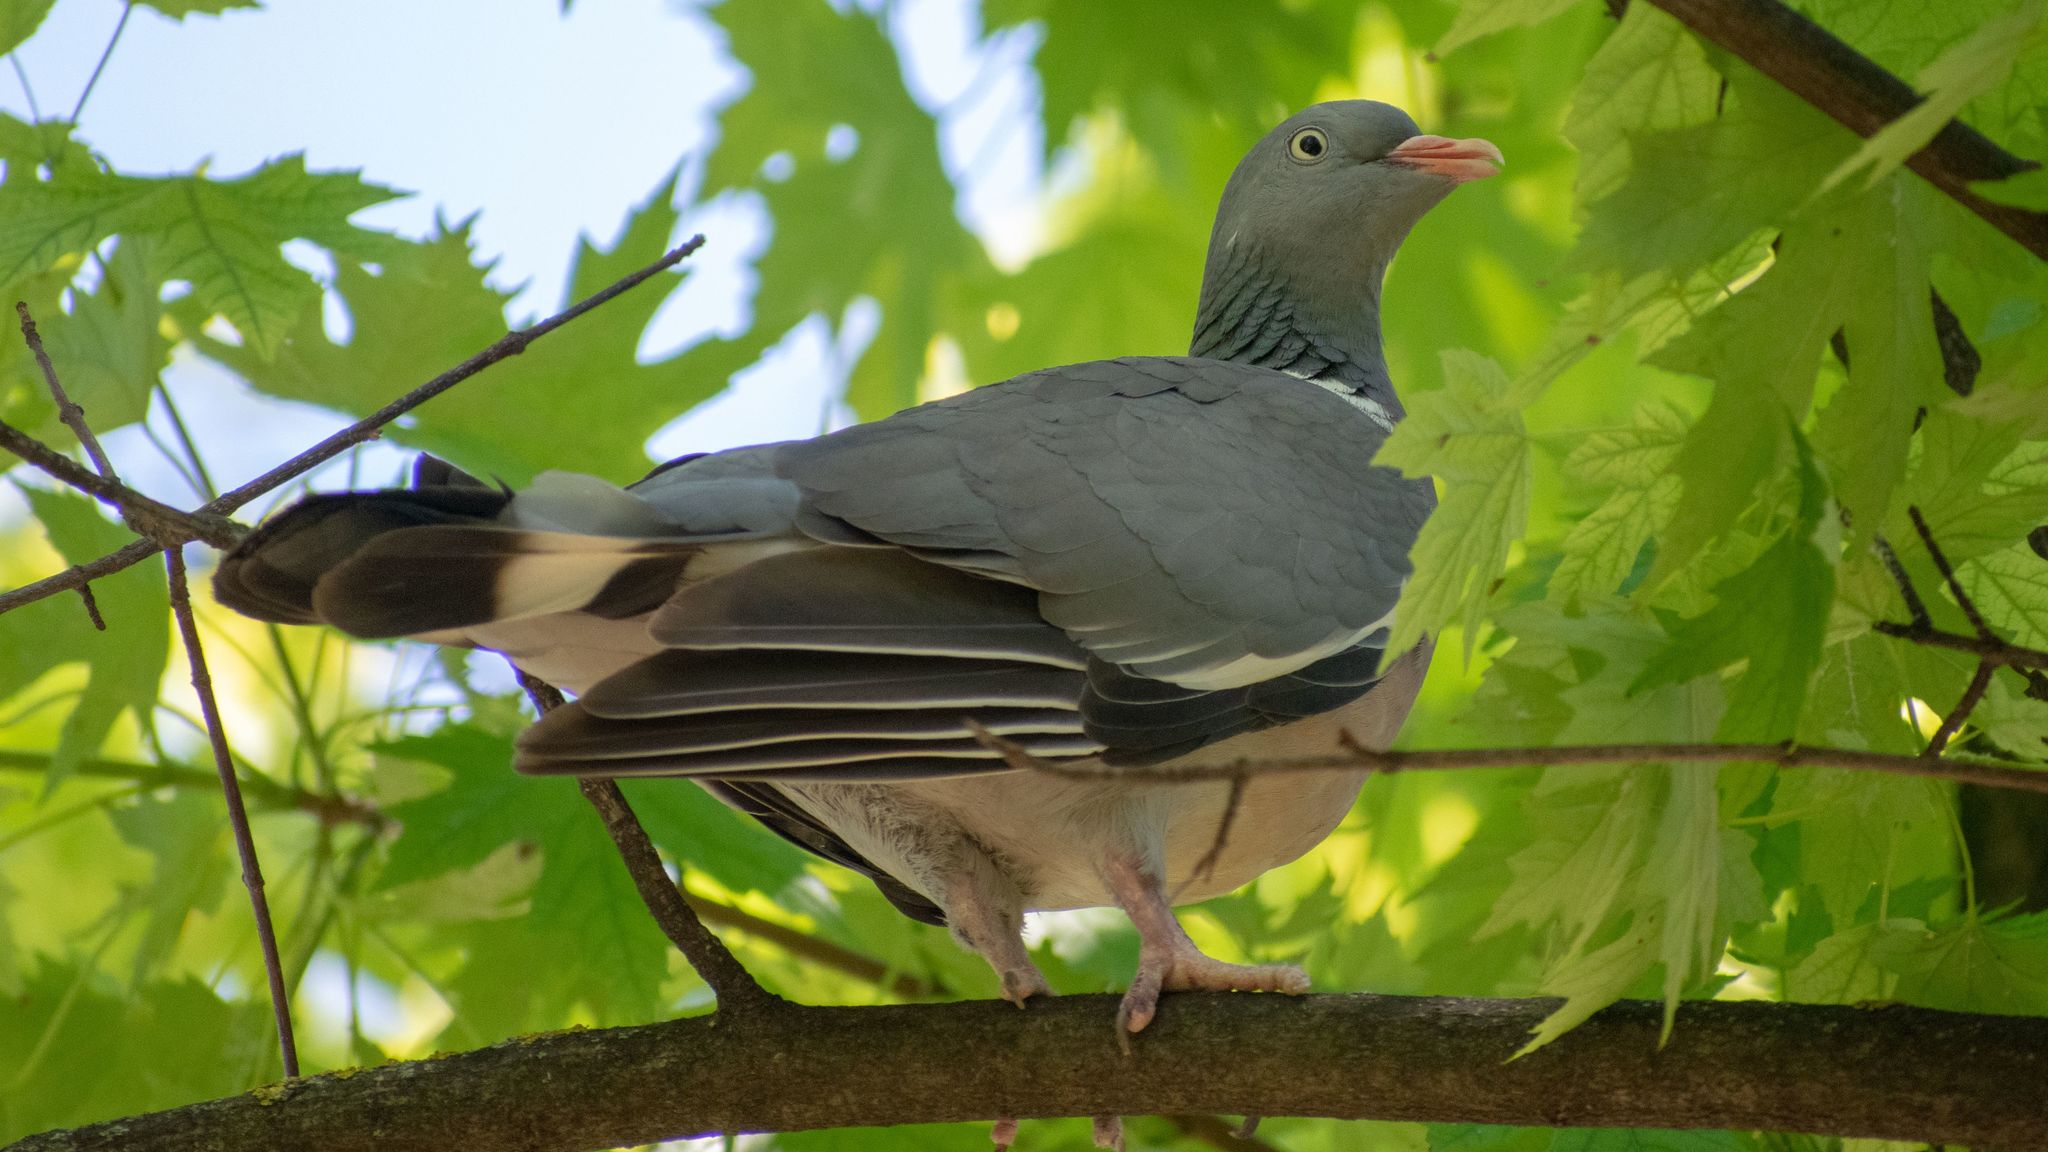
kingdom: Animalia
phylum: Chordata
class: Aves
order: Columbiformes
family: Columbidae
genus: Columba
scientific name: Columba palumbus
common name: Common wood pigeon
